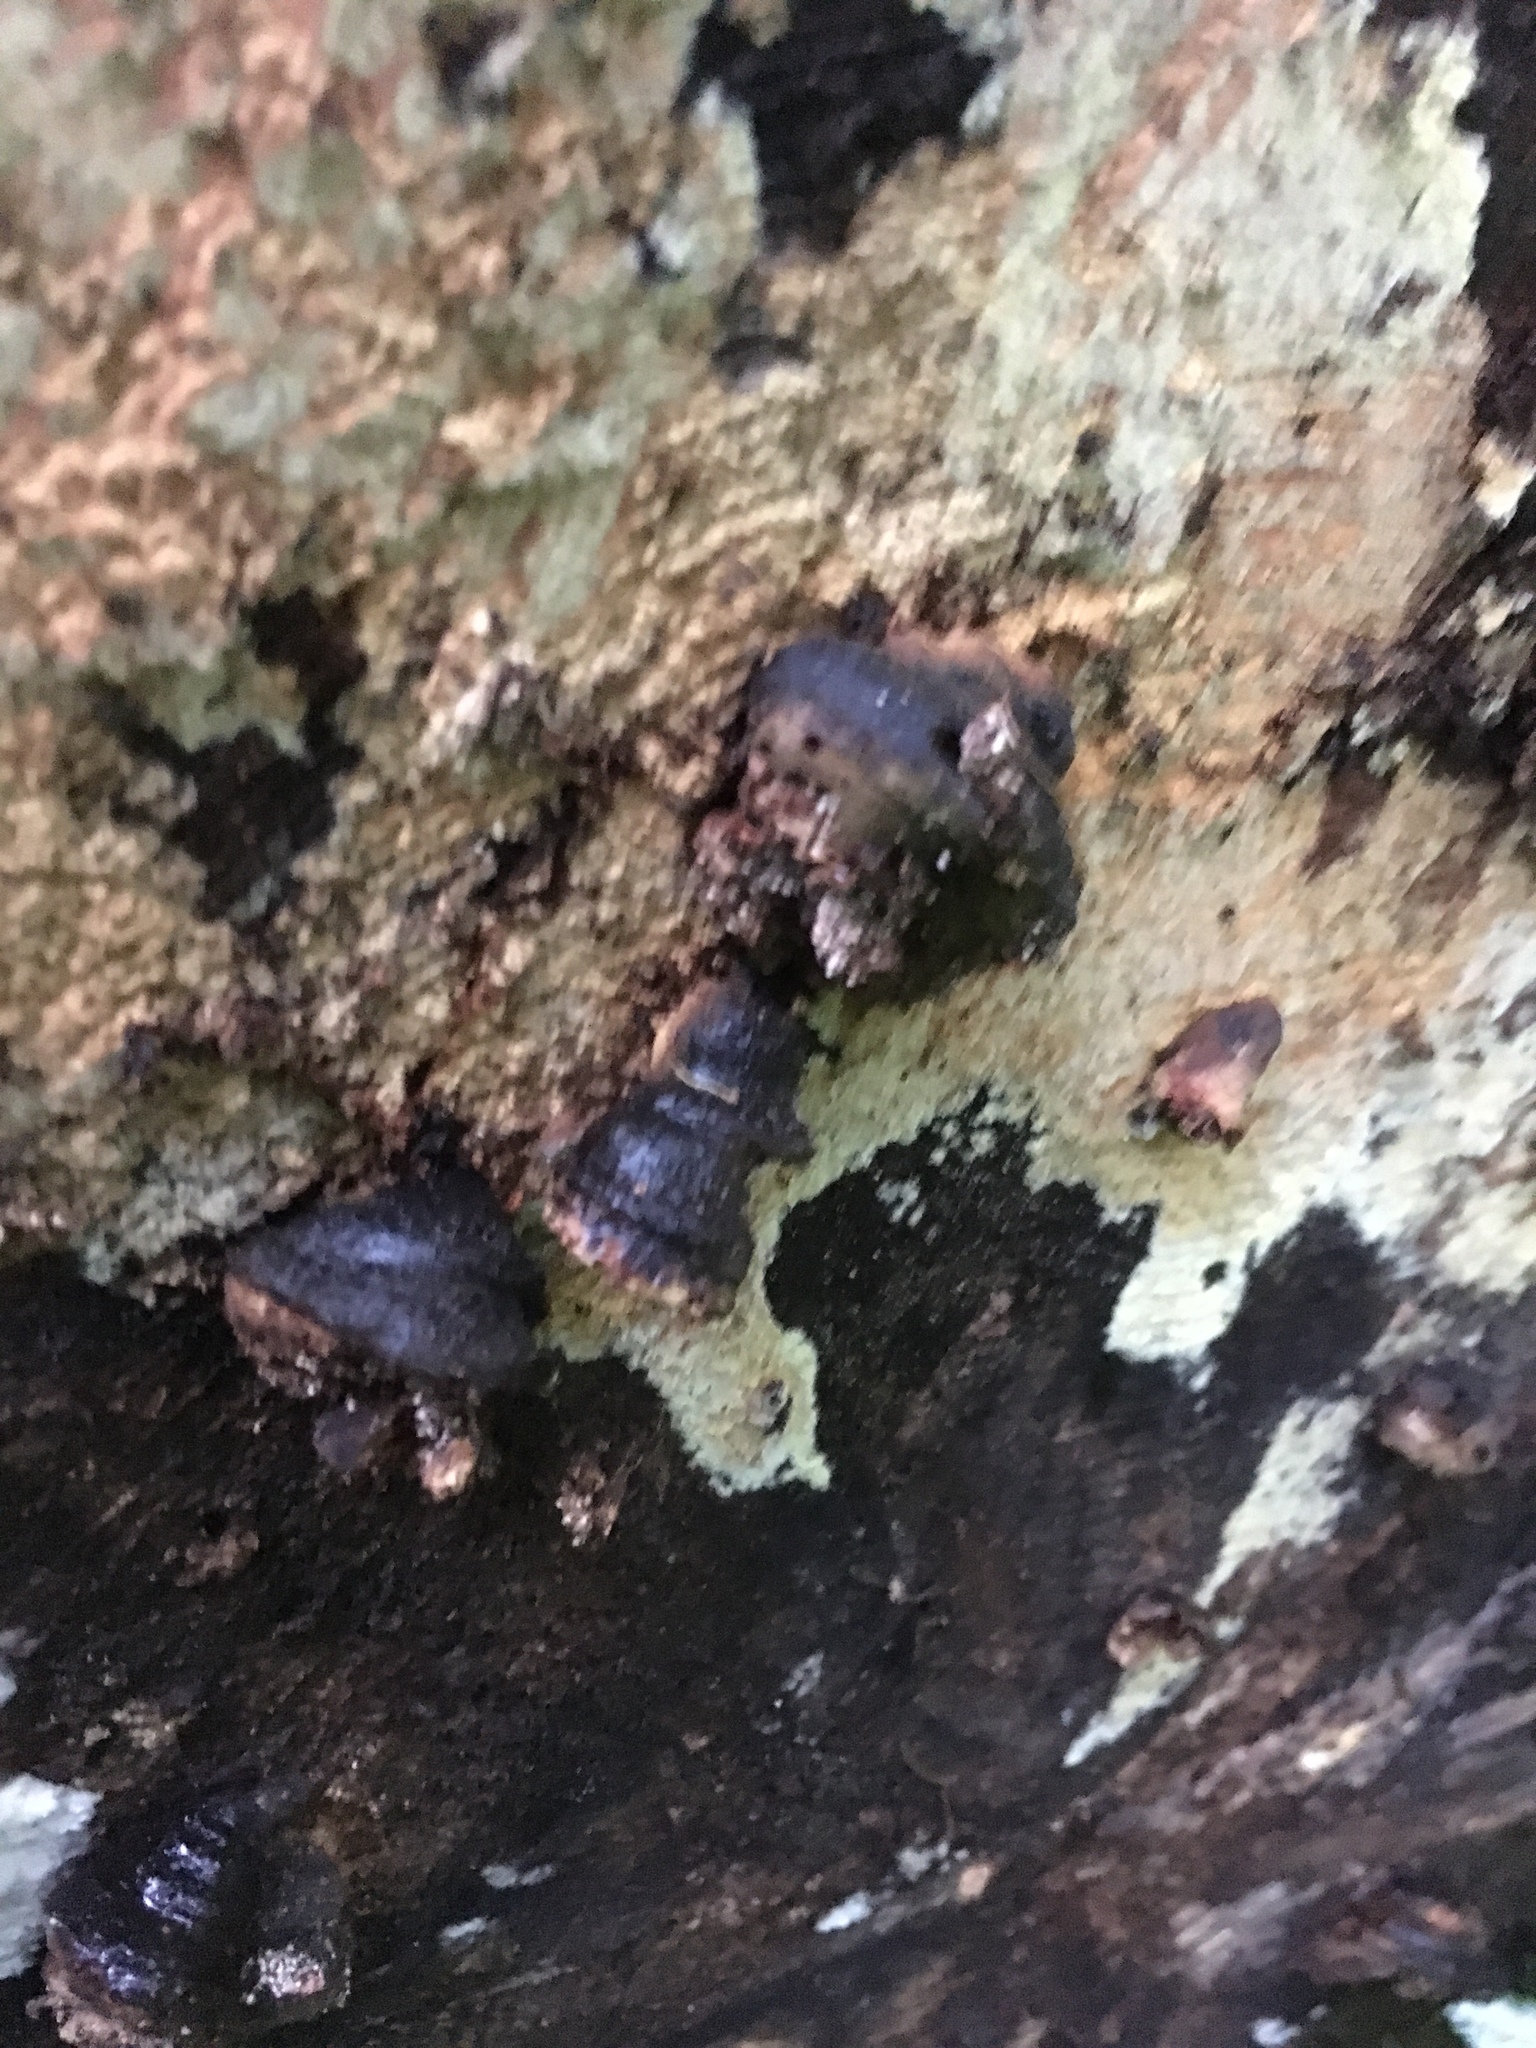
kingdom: Fungi
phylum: Basidiomycota
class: Agaricomycetes
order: Polyporales
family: Fomitopsidaceae
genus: Rhodofomes
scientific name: Rhodofomes roseus
